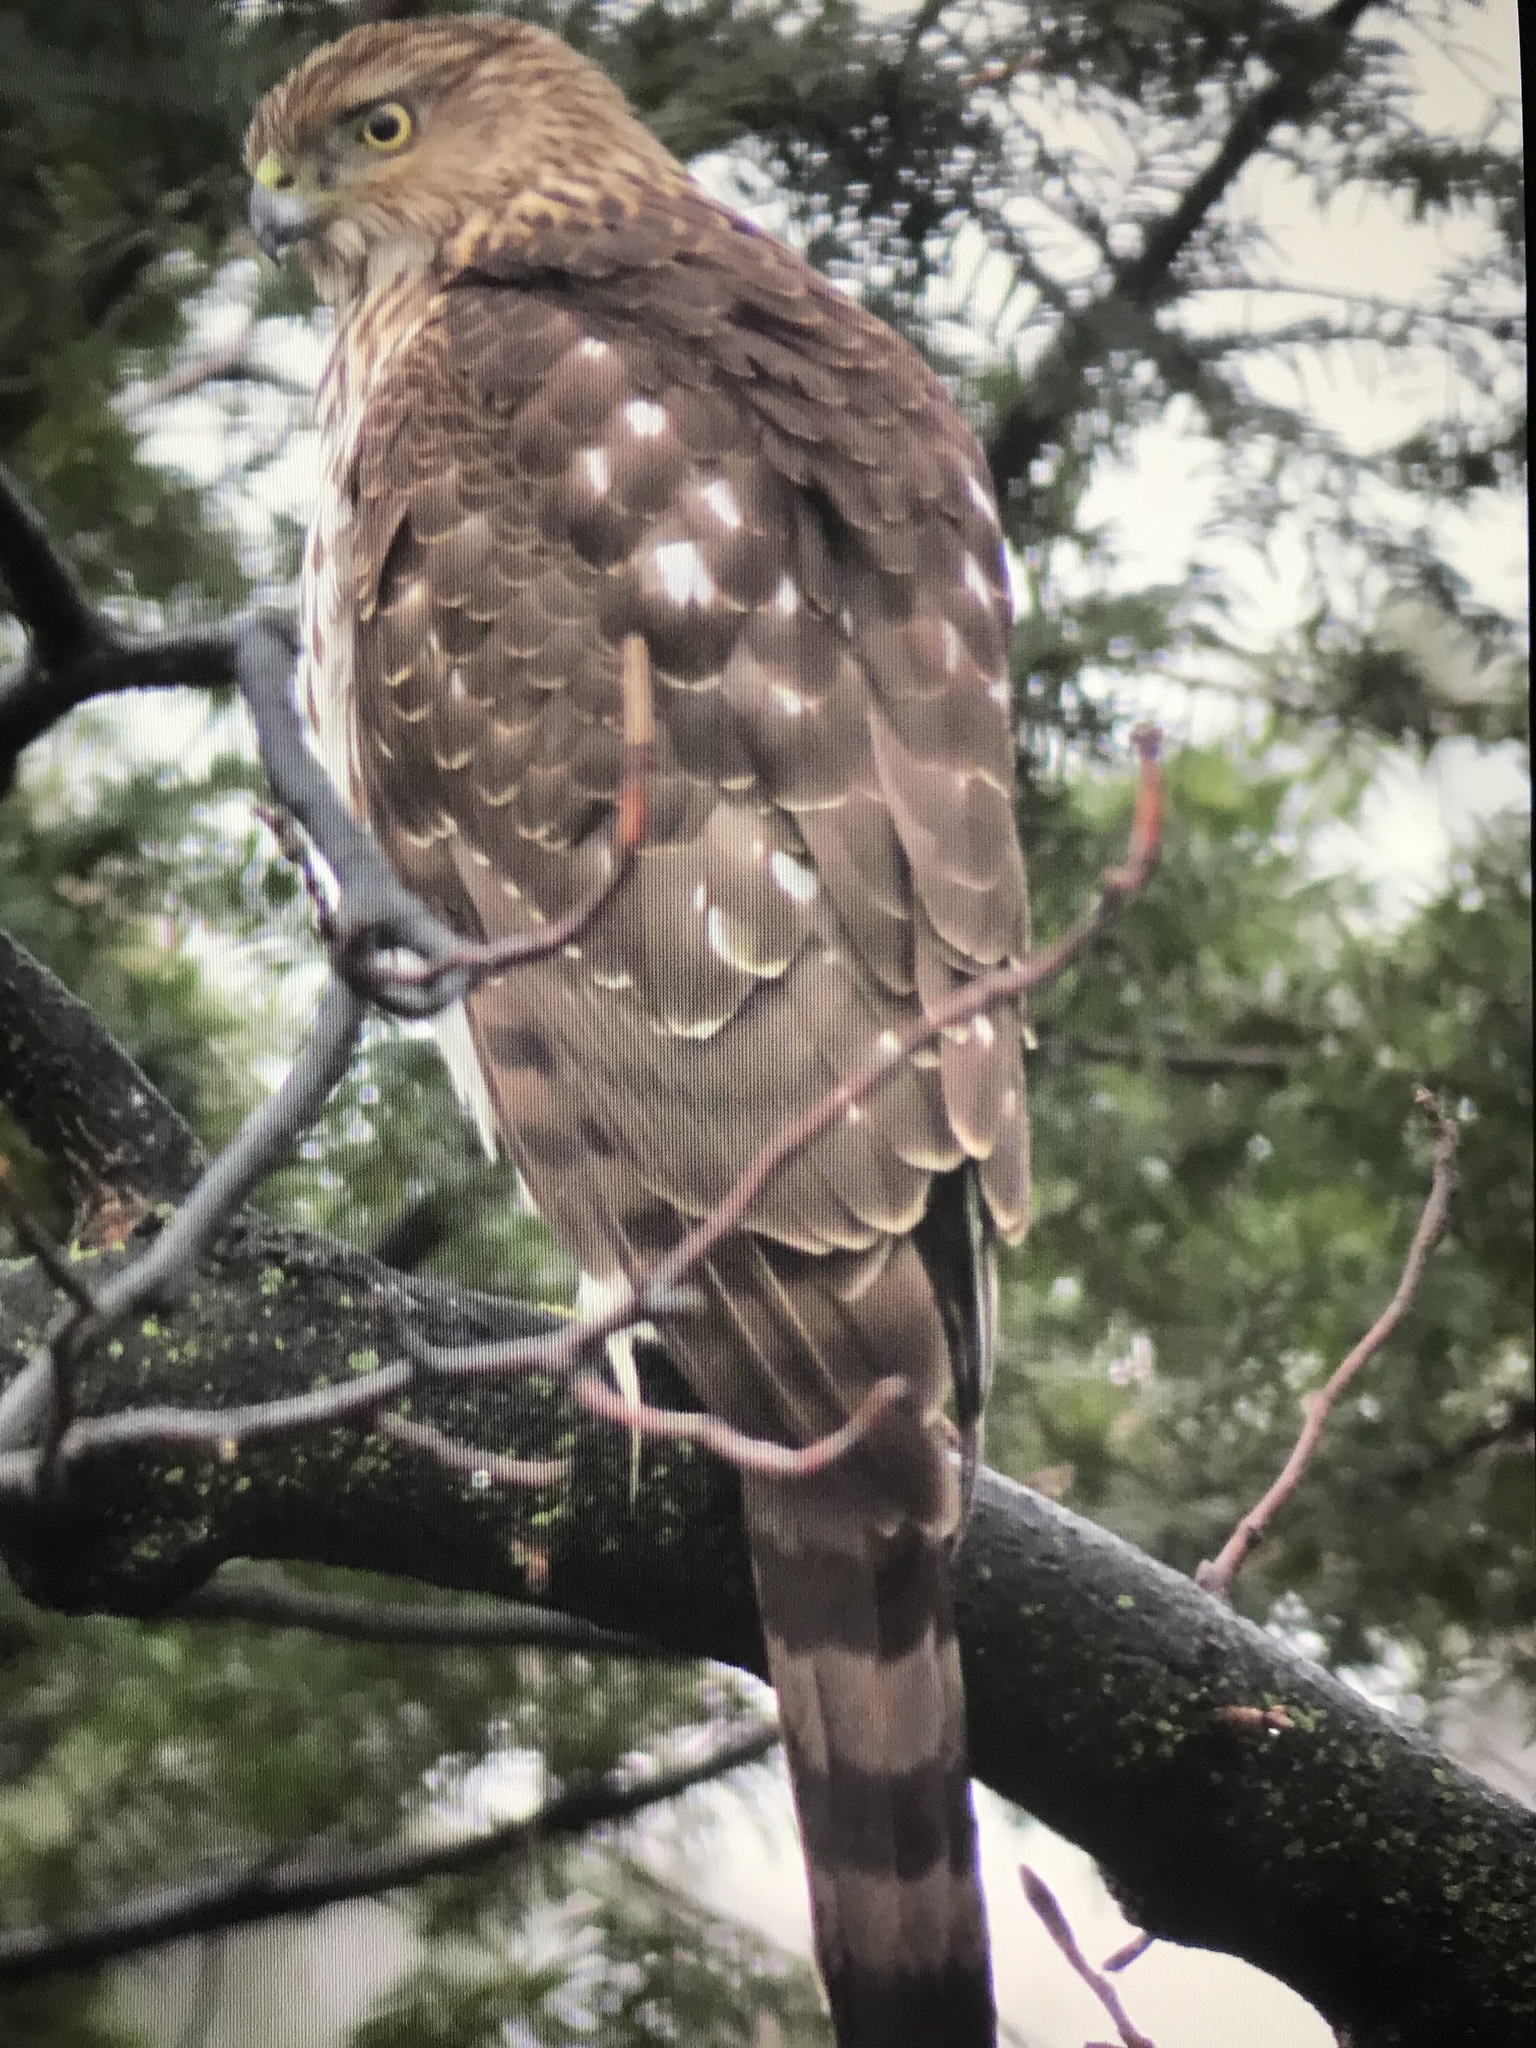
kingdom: Animalia
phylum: Chordata
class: Aves
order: Accipitriformes
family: Accipitridae
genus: Accipiter
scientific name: Accipiter cooperii
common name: Cooper's hawk
